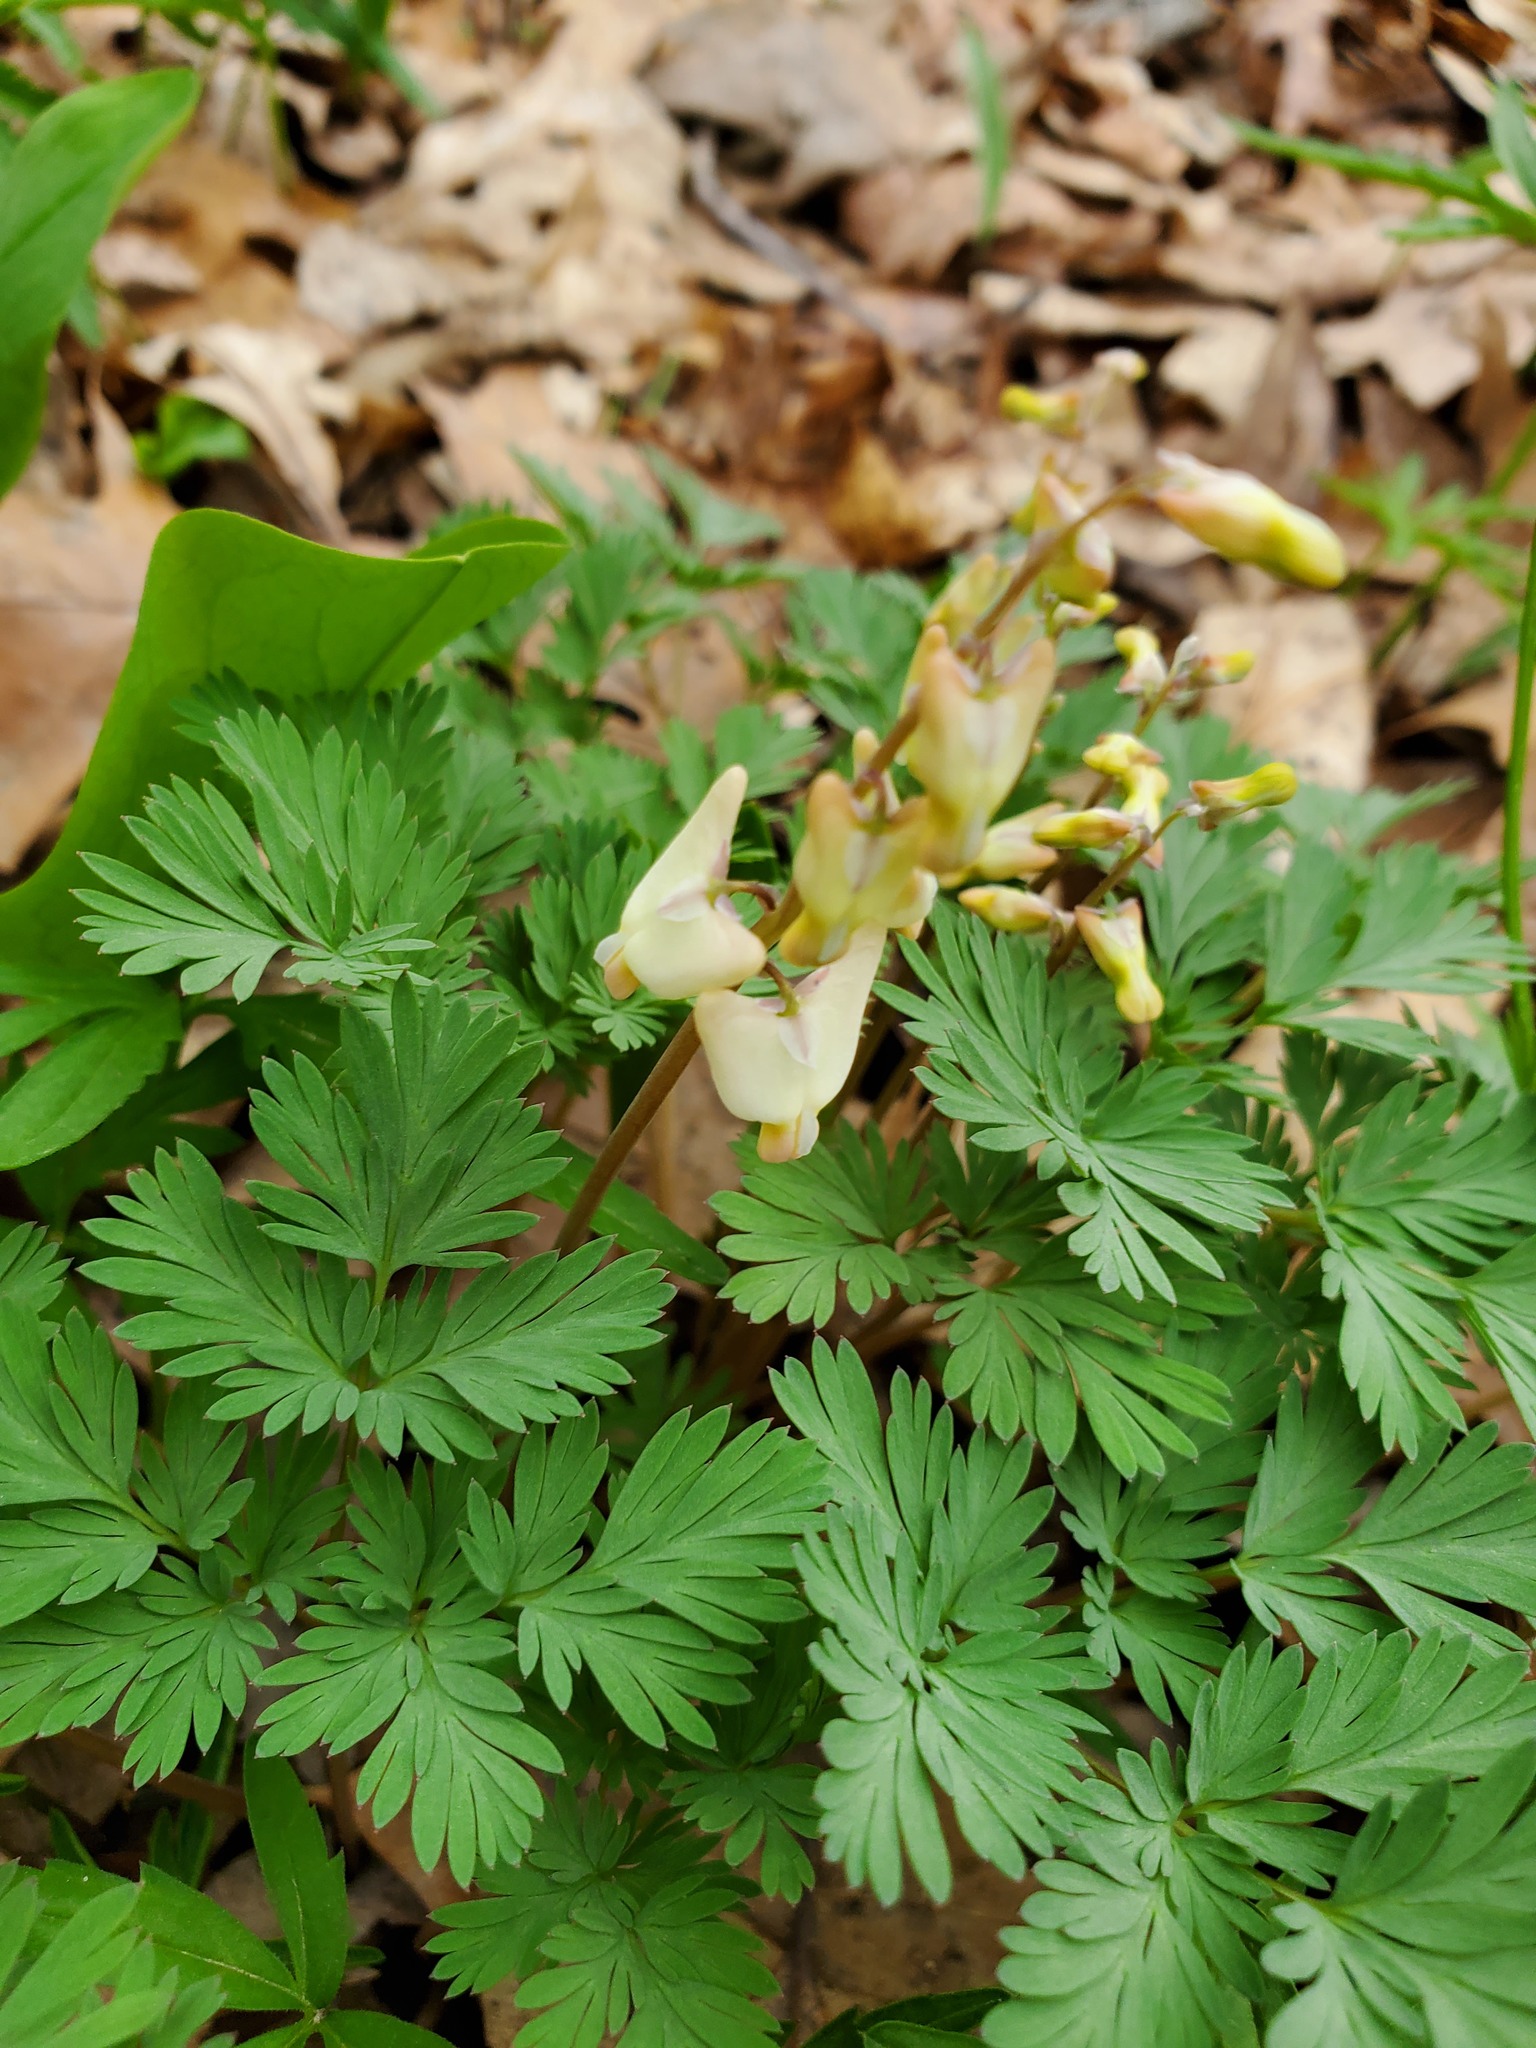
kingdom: Plantae
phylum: Tracheophyta
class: Magnoliopsida
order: Ranunculales
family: Papaveraceae
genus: Dicentra
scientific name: Dicentra cucullaria
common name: Dutchman's breeches
